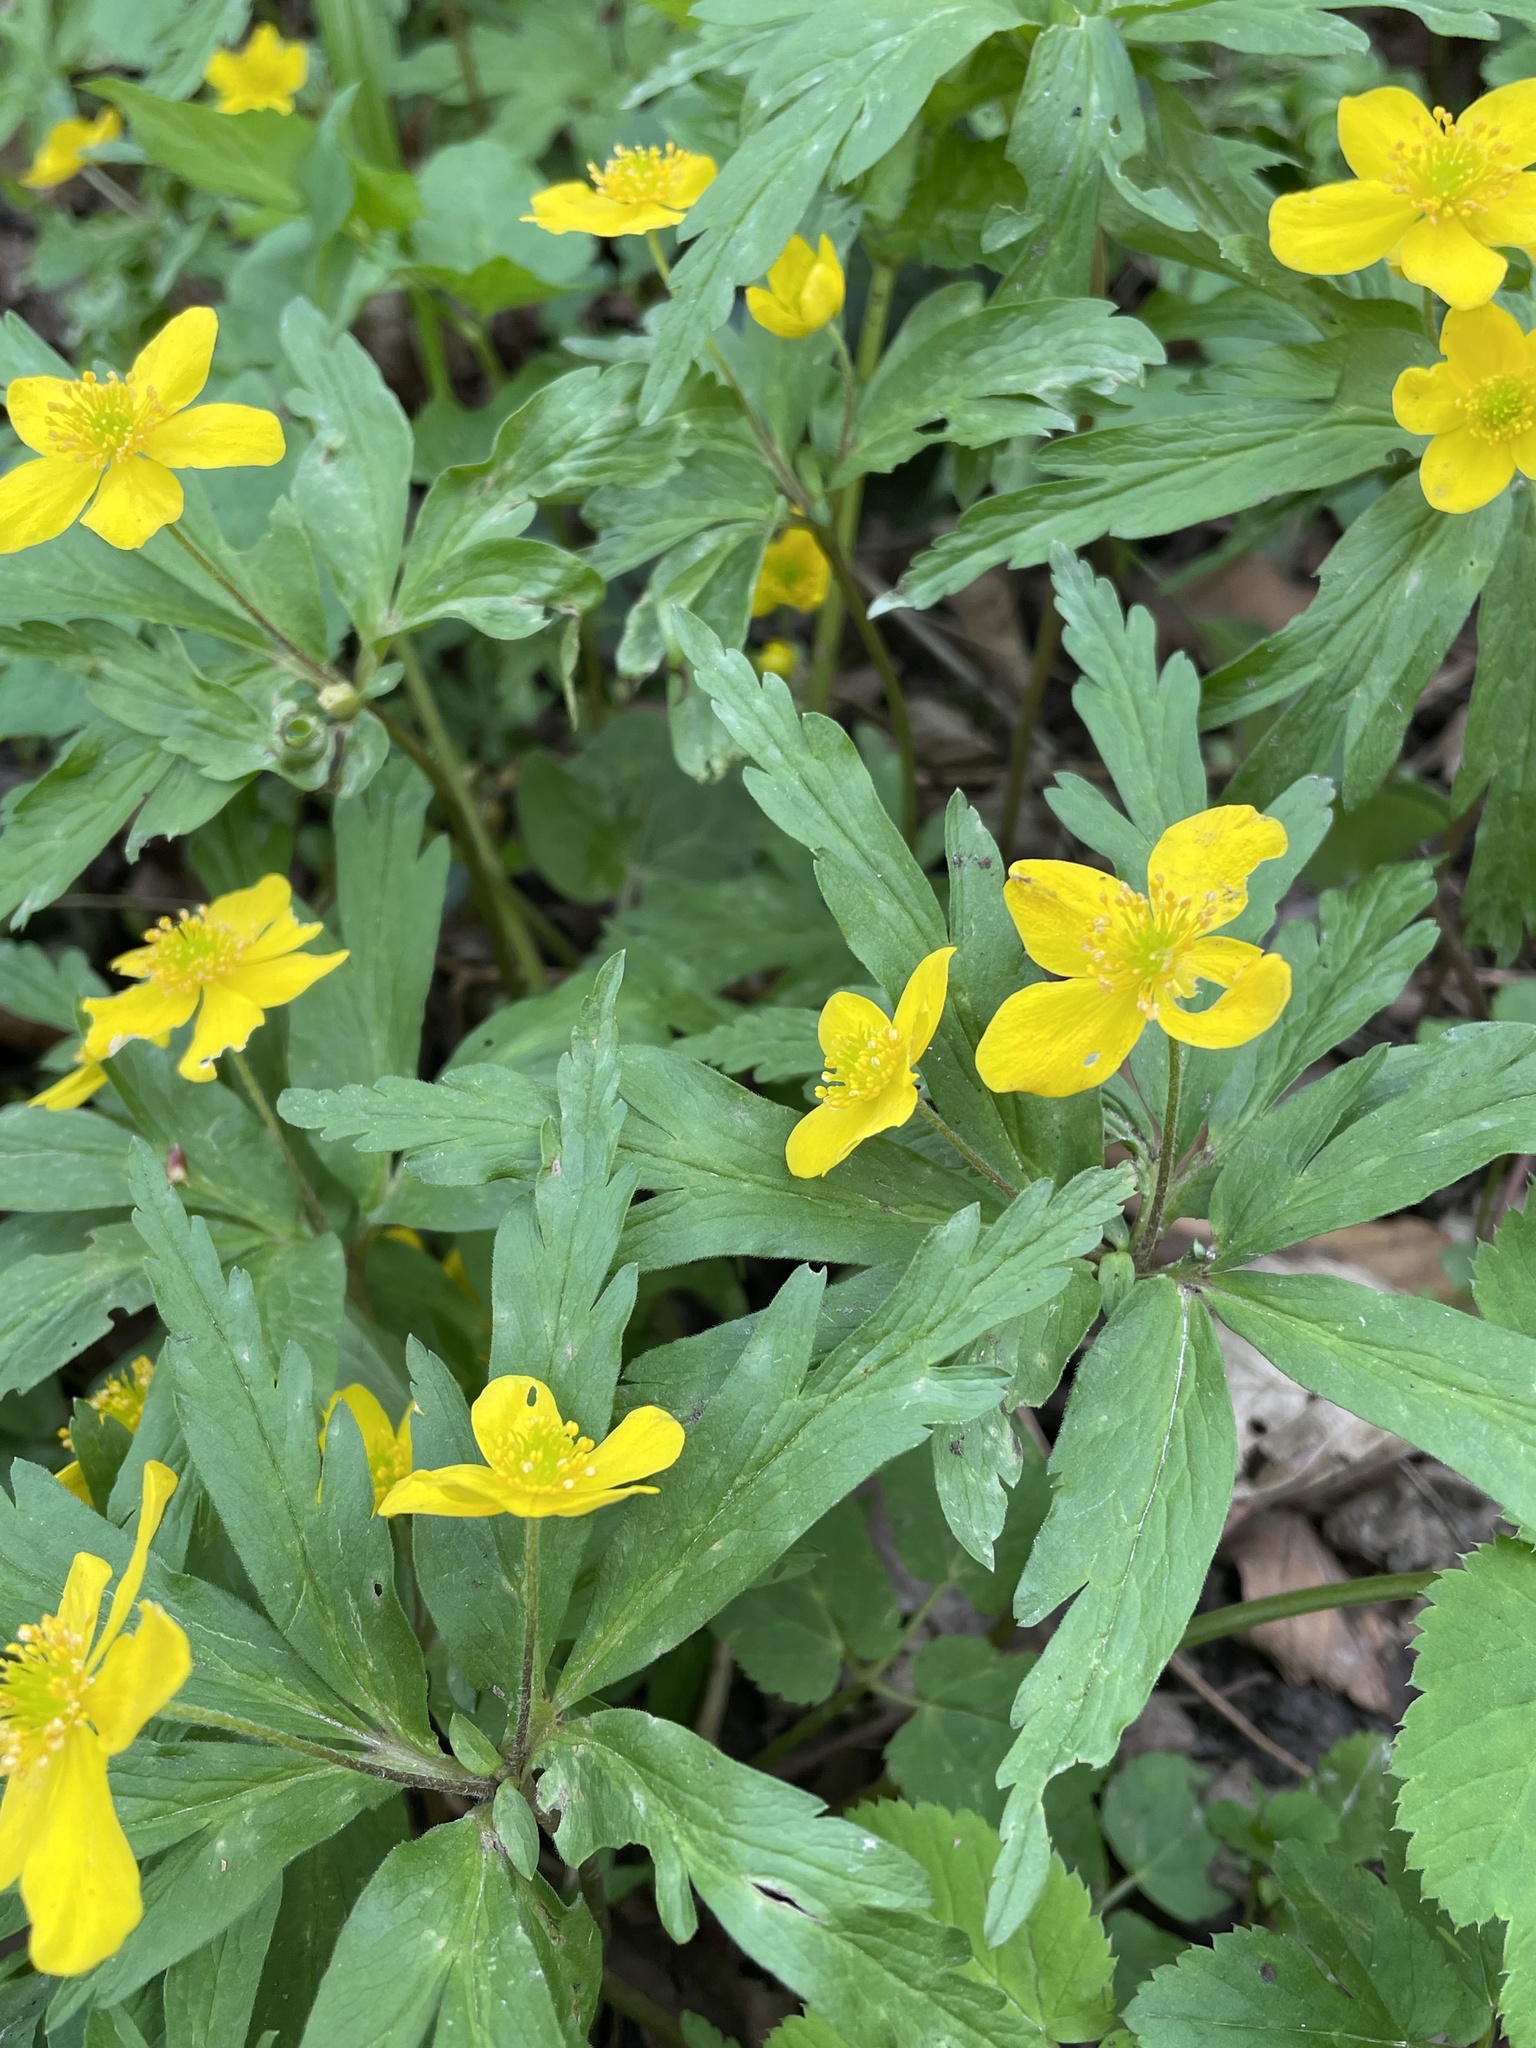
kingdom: Plantae
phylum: Tracheophyta
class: Magnoliopsida
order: Ranunculales
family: Ranunculaceae
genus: Anemone
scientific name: Anemone ranunculoides
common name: Yellow anemone
